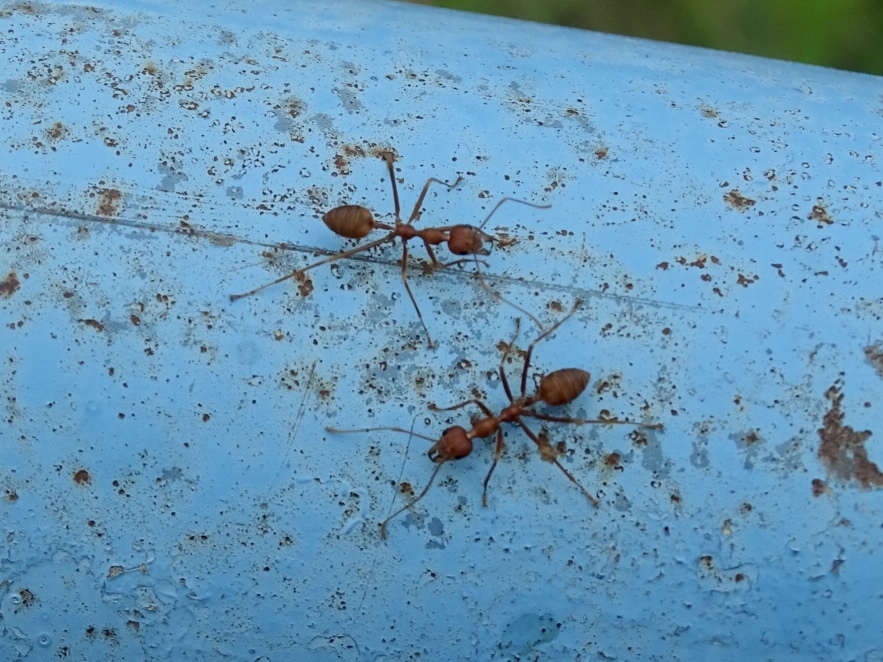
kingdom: Animalia
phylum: Arthropoda
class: Insecta
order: Hymenoptera
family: Formicidae
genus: Oecophylla
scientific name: Oecophylla smaragdina
